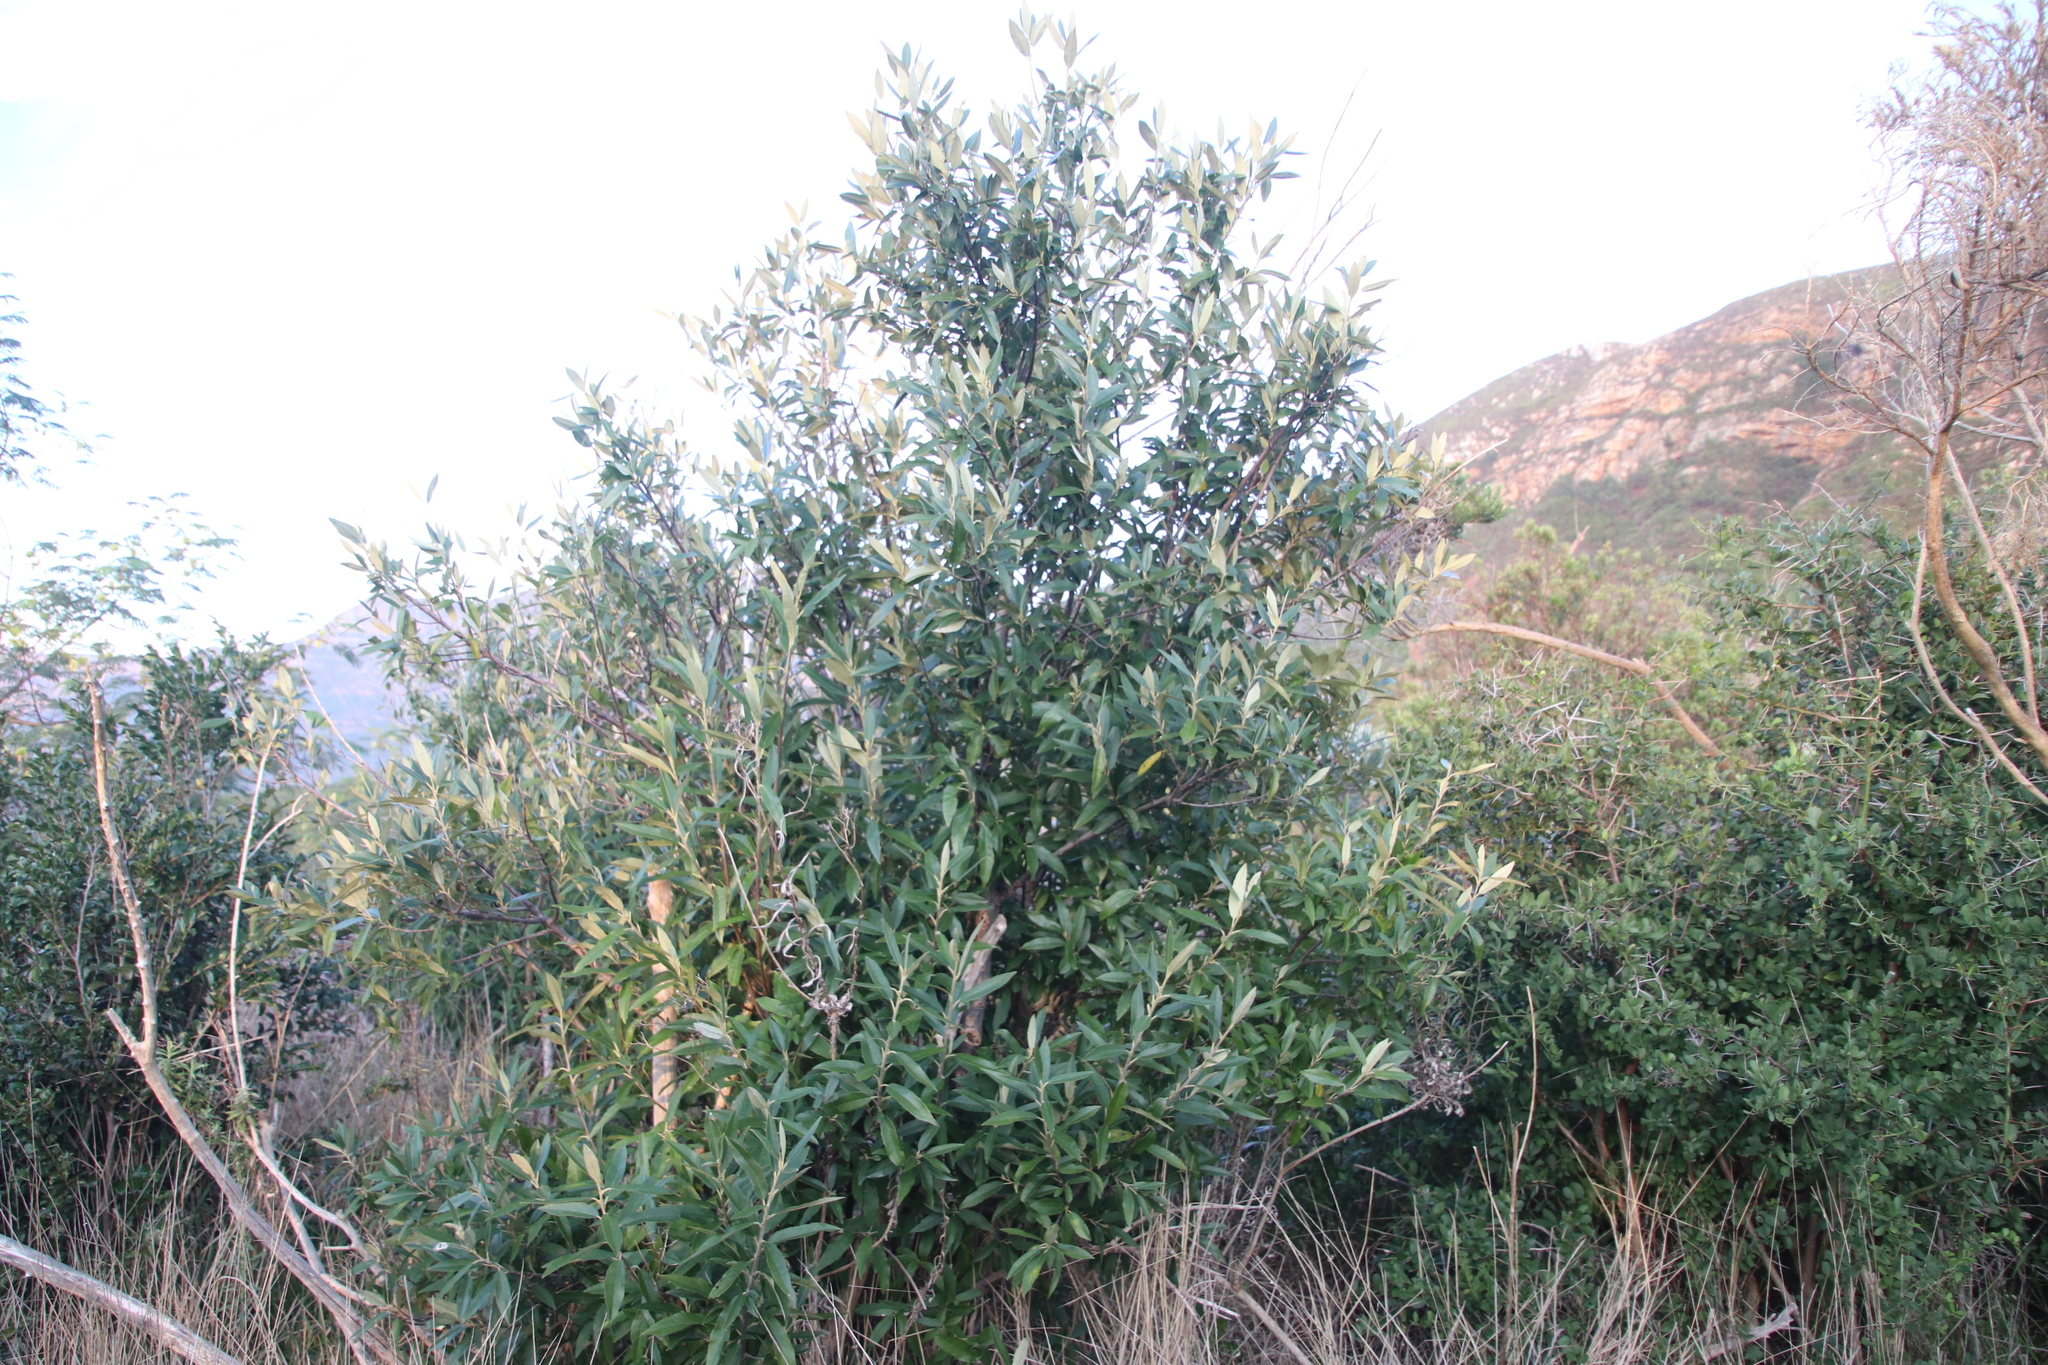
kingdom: Plantae
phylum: Tracheophyta
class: Magnoliopsida
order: Malpighiales
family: Achariaceae
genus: Kiggelaria
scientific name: Kiggelaria africana
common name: Wild peach
